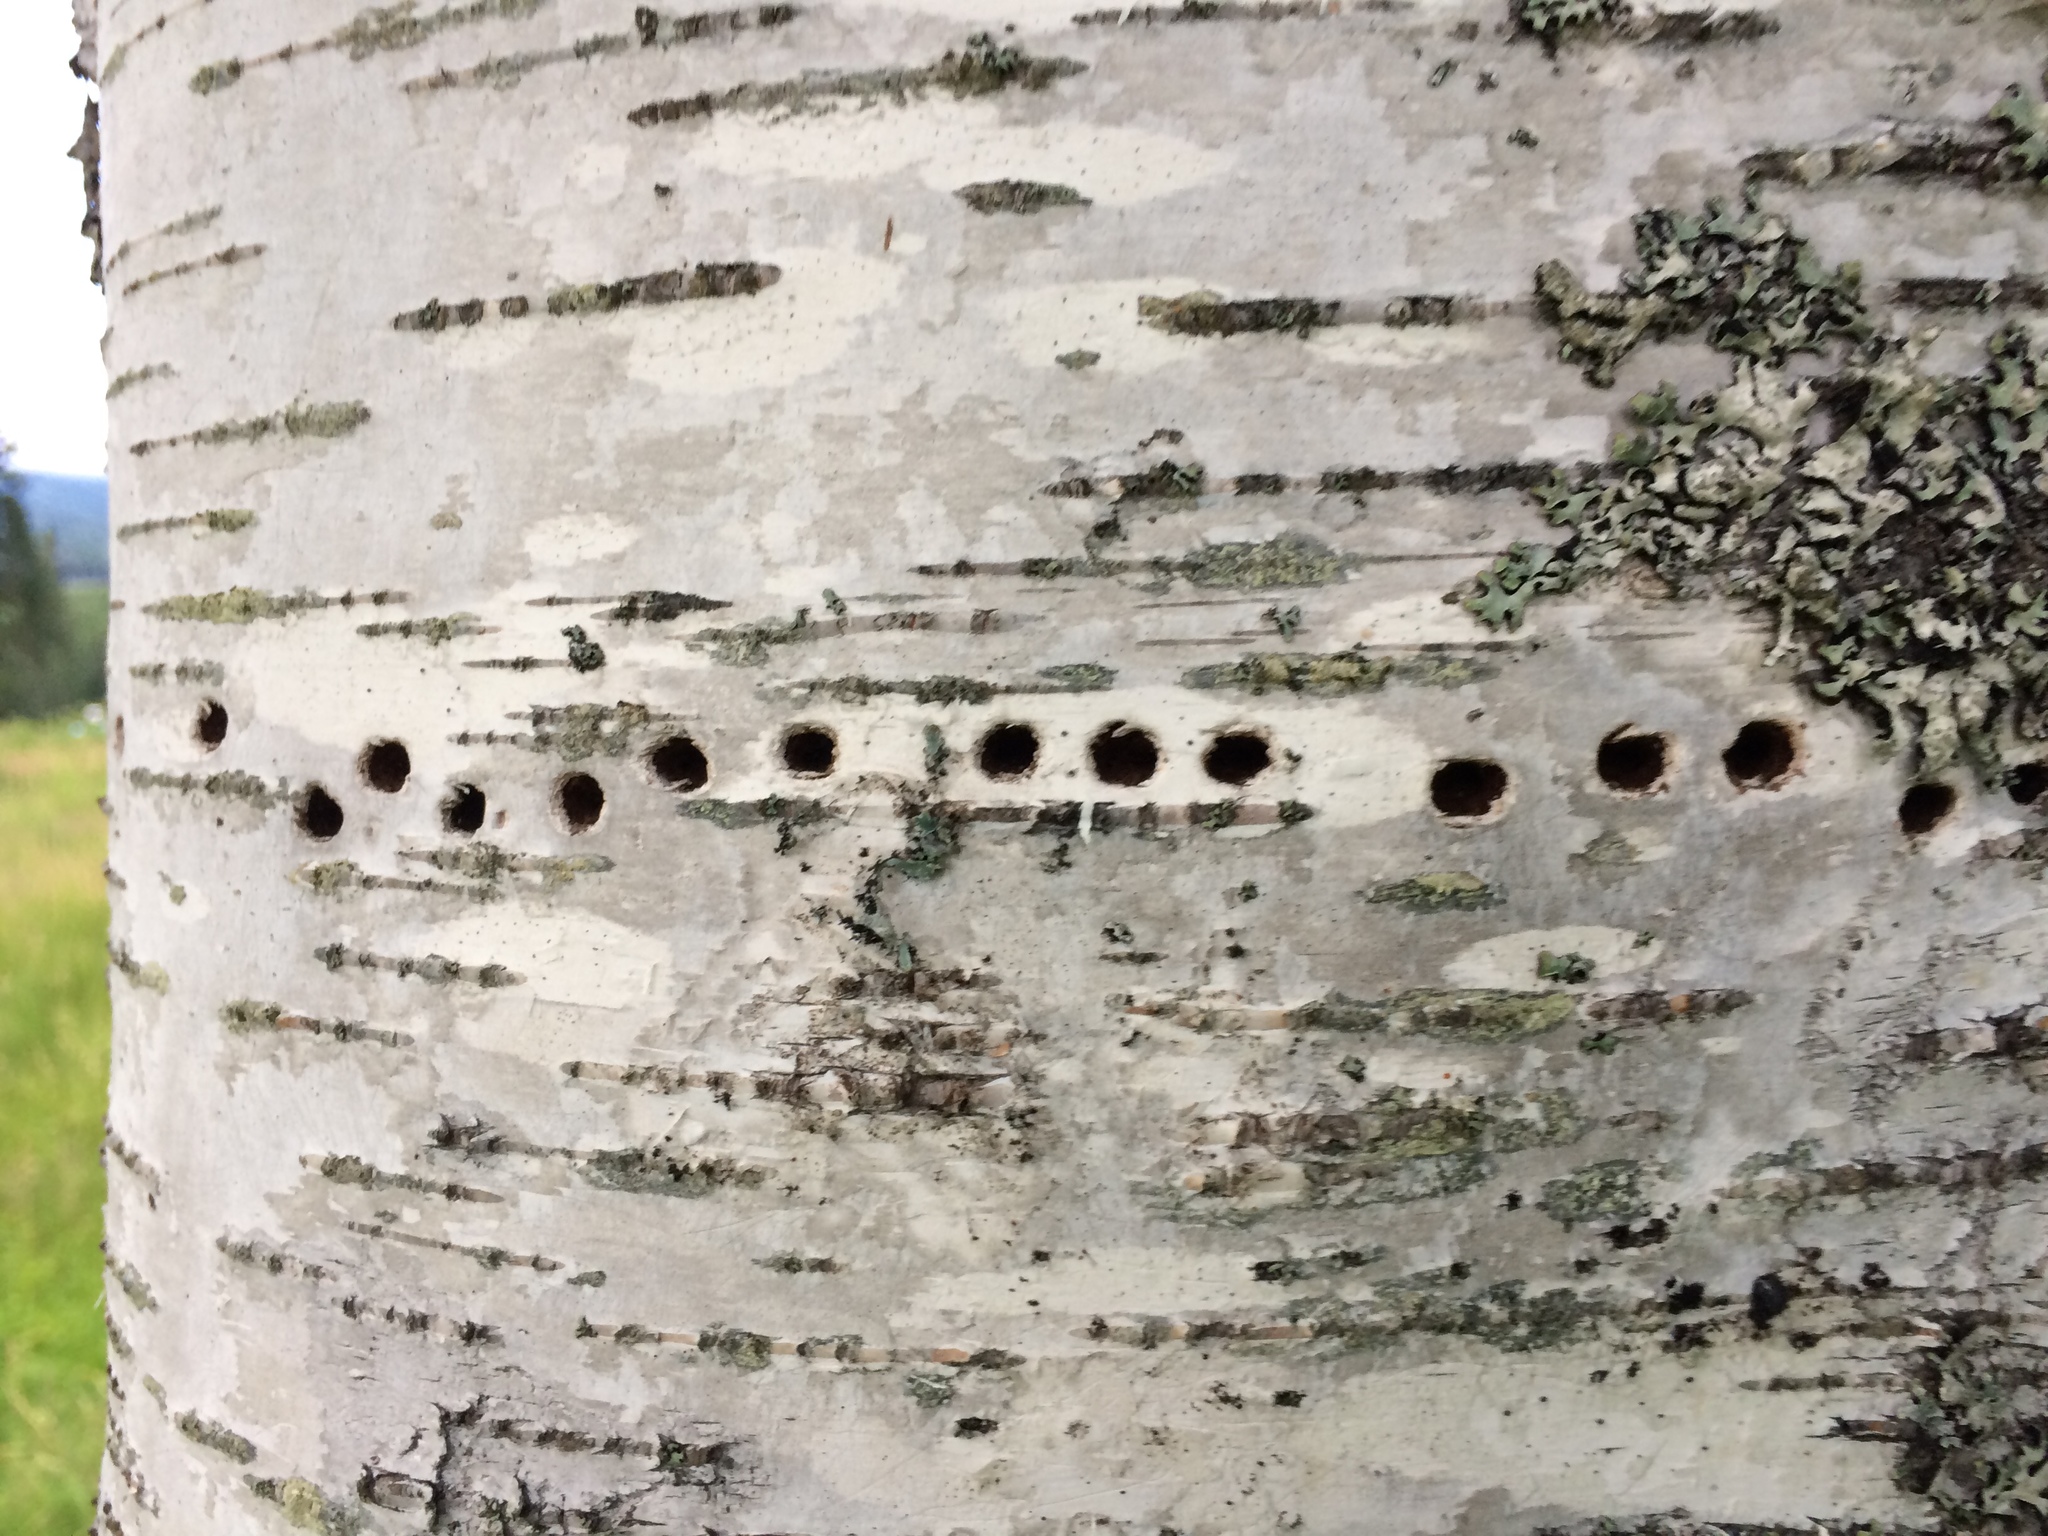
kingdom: Animalia
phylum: Chordata
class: Aves
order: Piciformes
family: Picidae
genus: Sphyrapicus
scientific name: Sphyrapicus varius
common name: Yellow-bellied sapsucker
